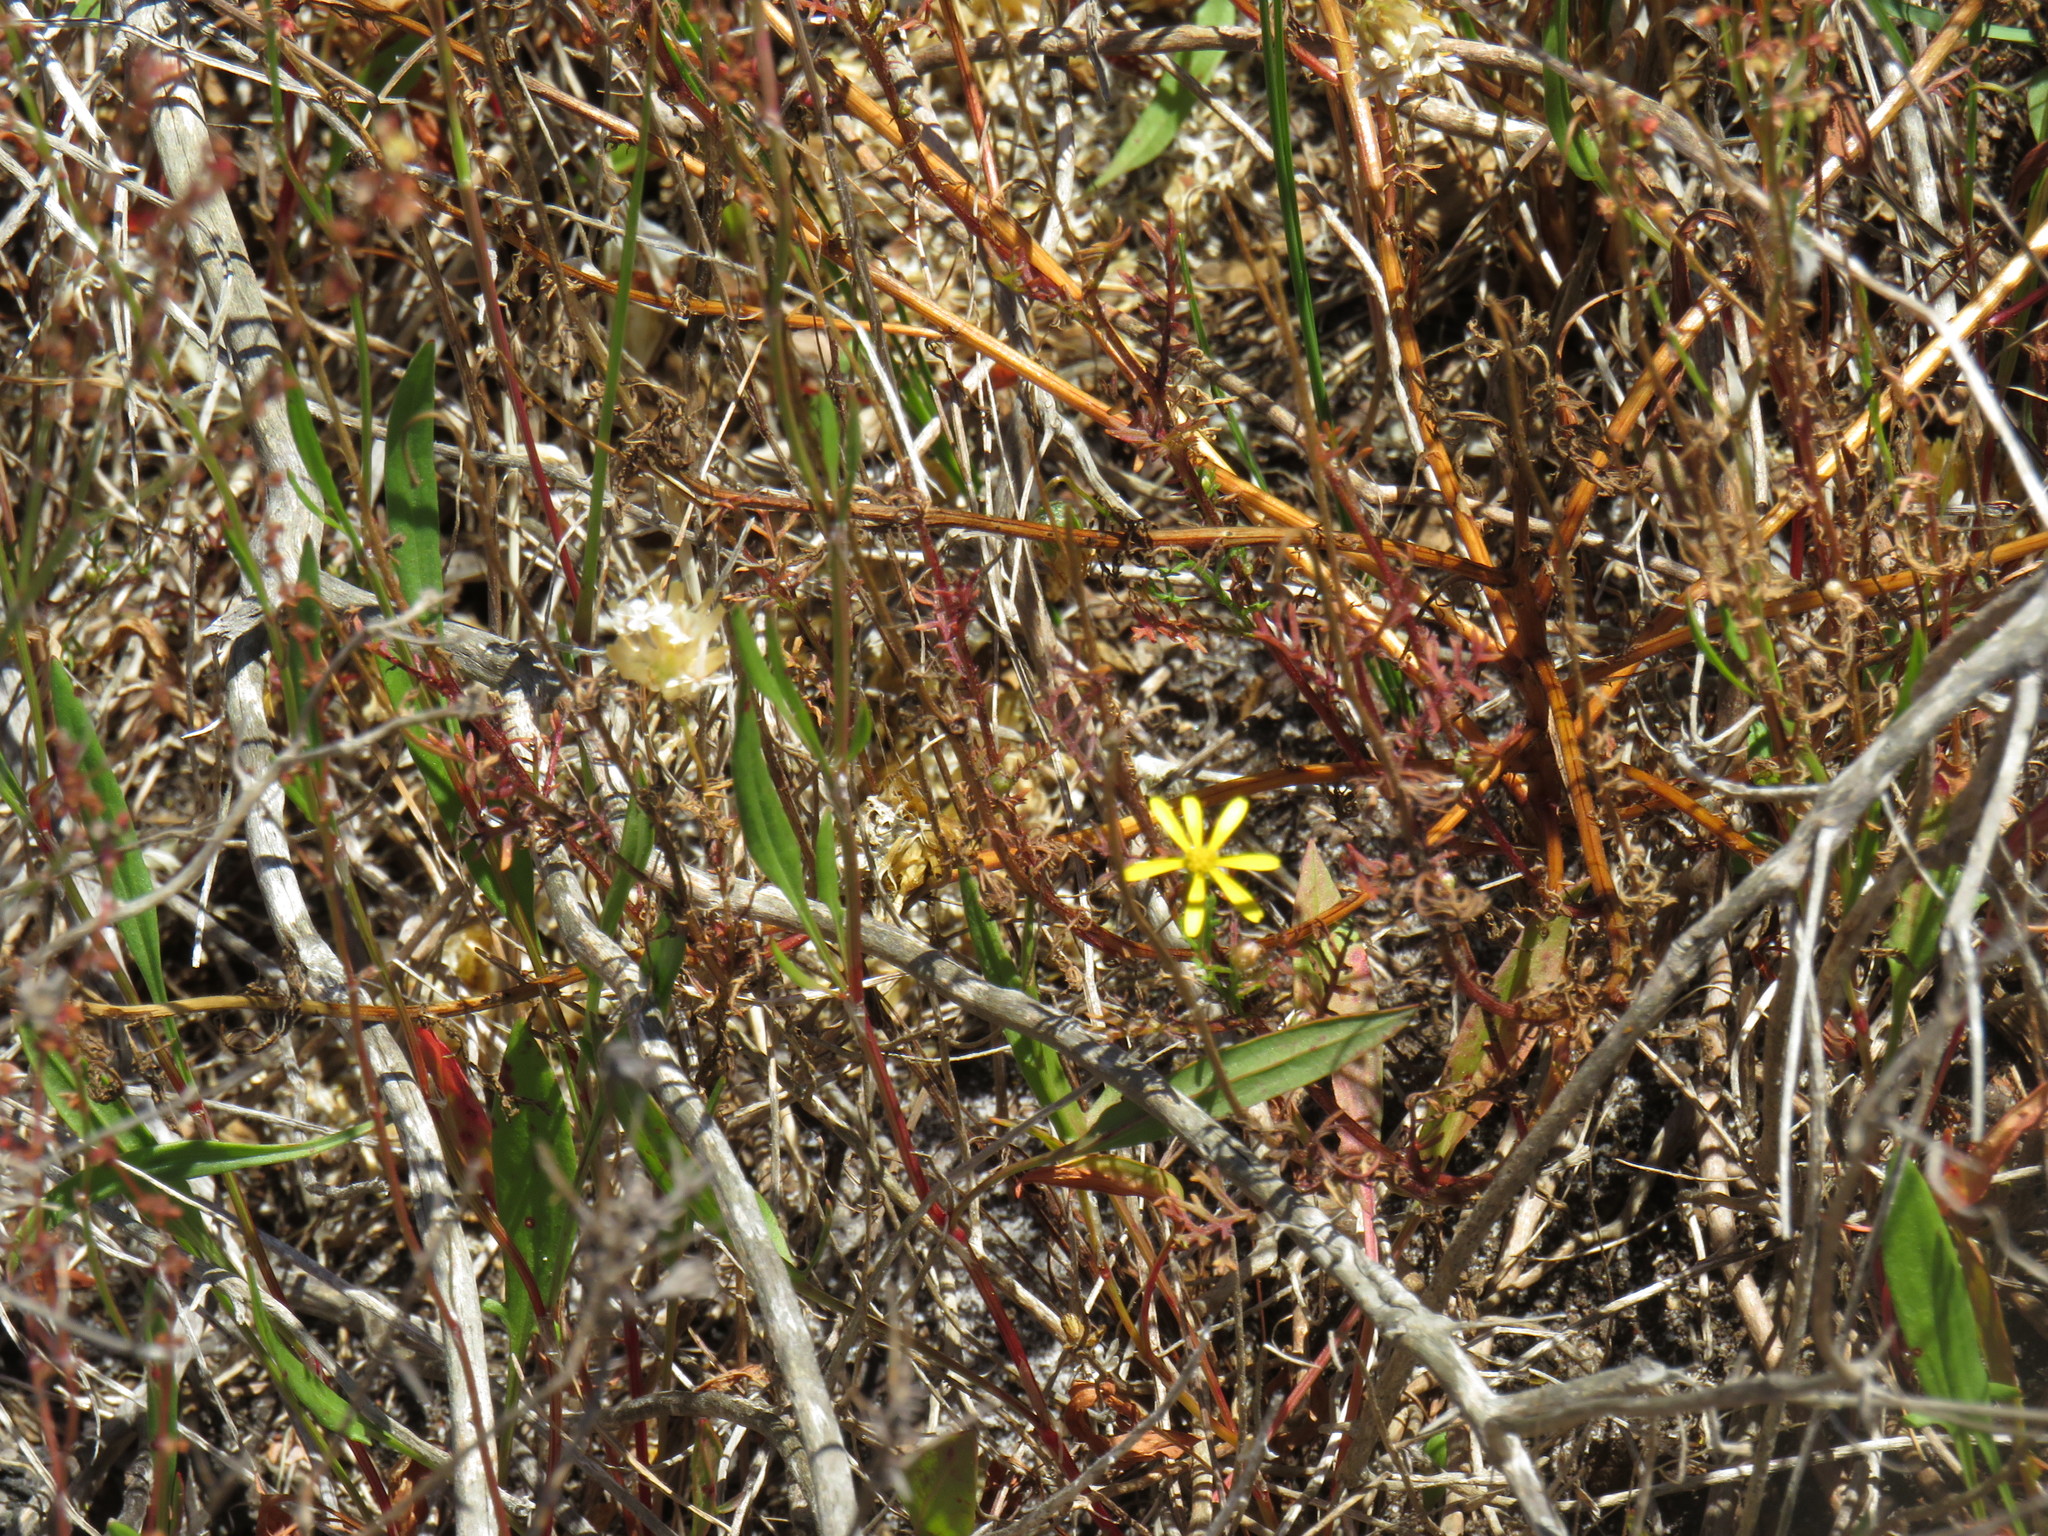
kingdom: Plantae
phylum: Tracheophyta
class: Magnoliopsida
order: Asterales
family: Asteraceae
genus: Ursinia
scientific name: Ursinia anthemoides
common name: Ursinia
